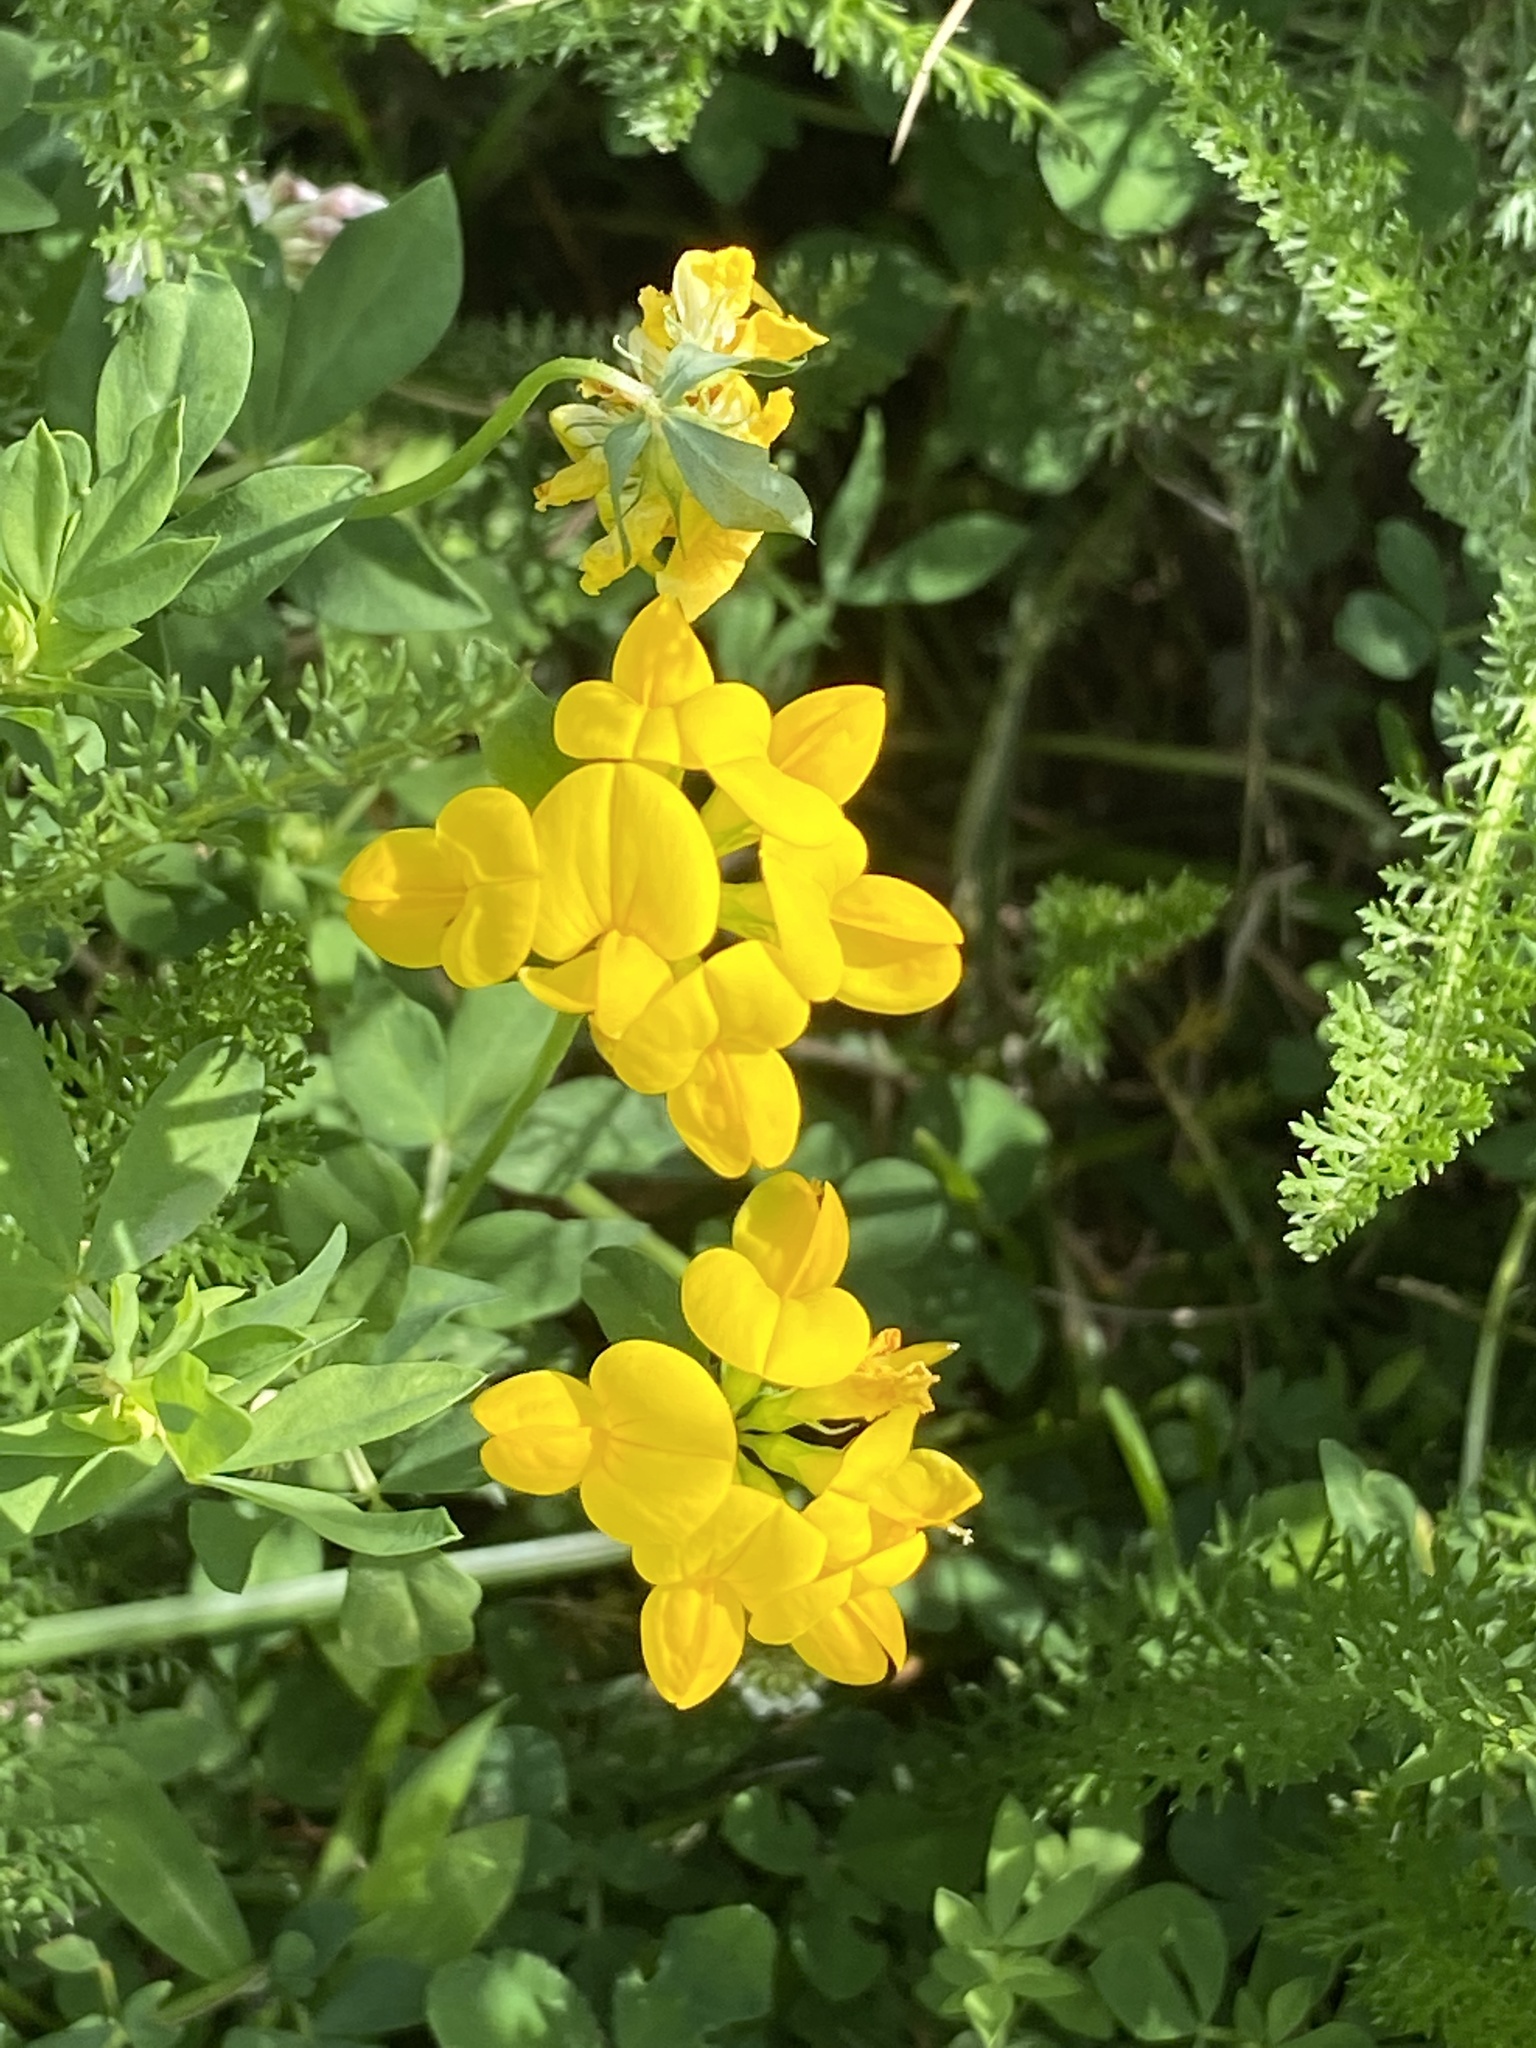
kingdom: Plantae
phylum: Tracheophyta
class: Magnoliopsida
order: Fabales
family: Fabaceae
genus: Lotus
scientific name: Lotus corniculatus
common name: Common bird's-foot-trefoil
